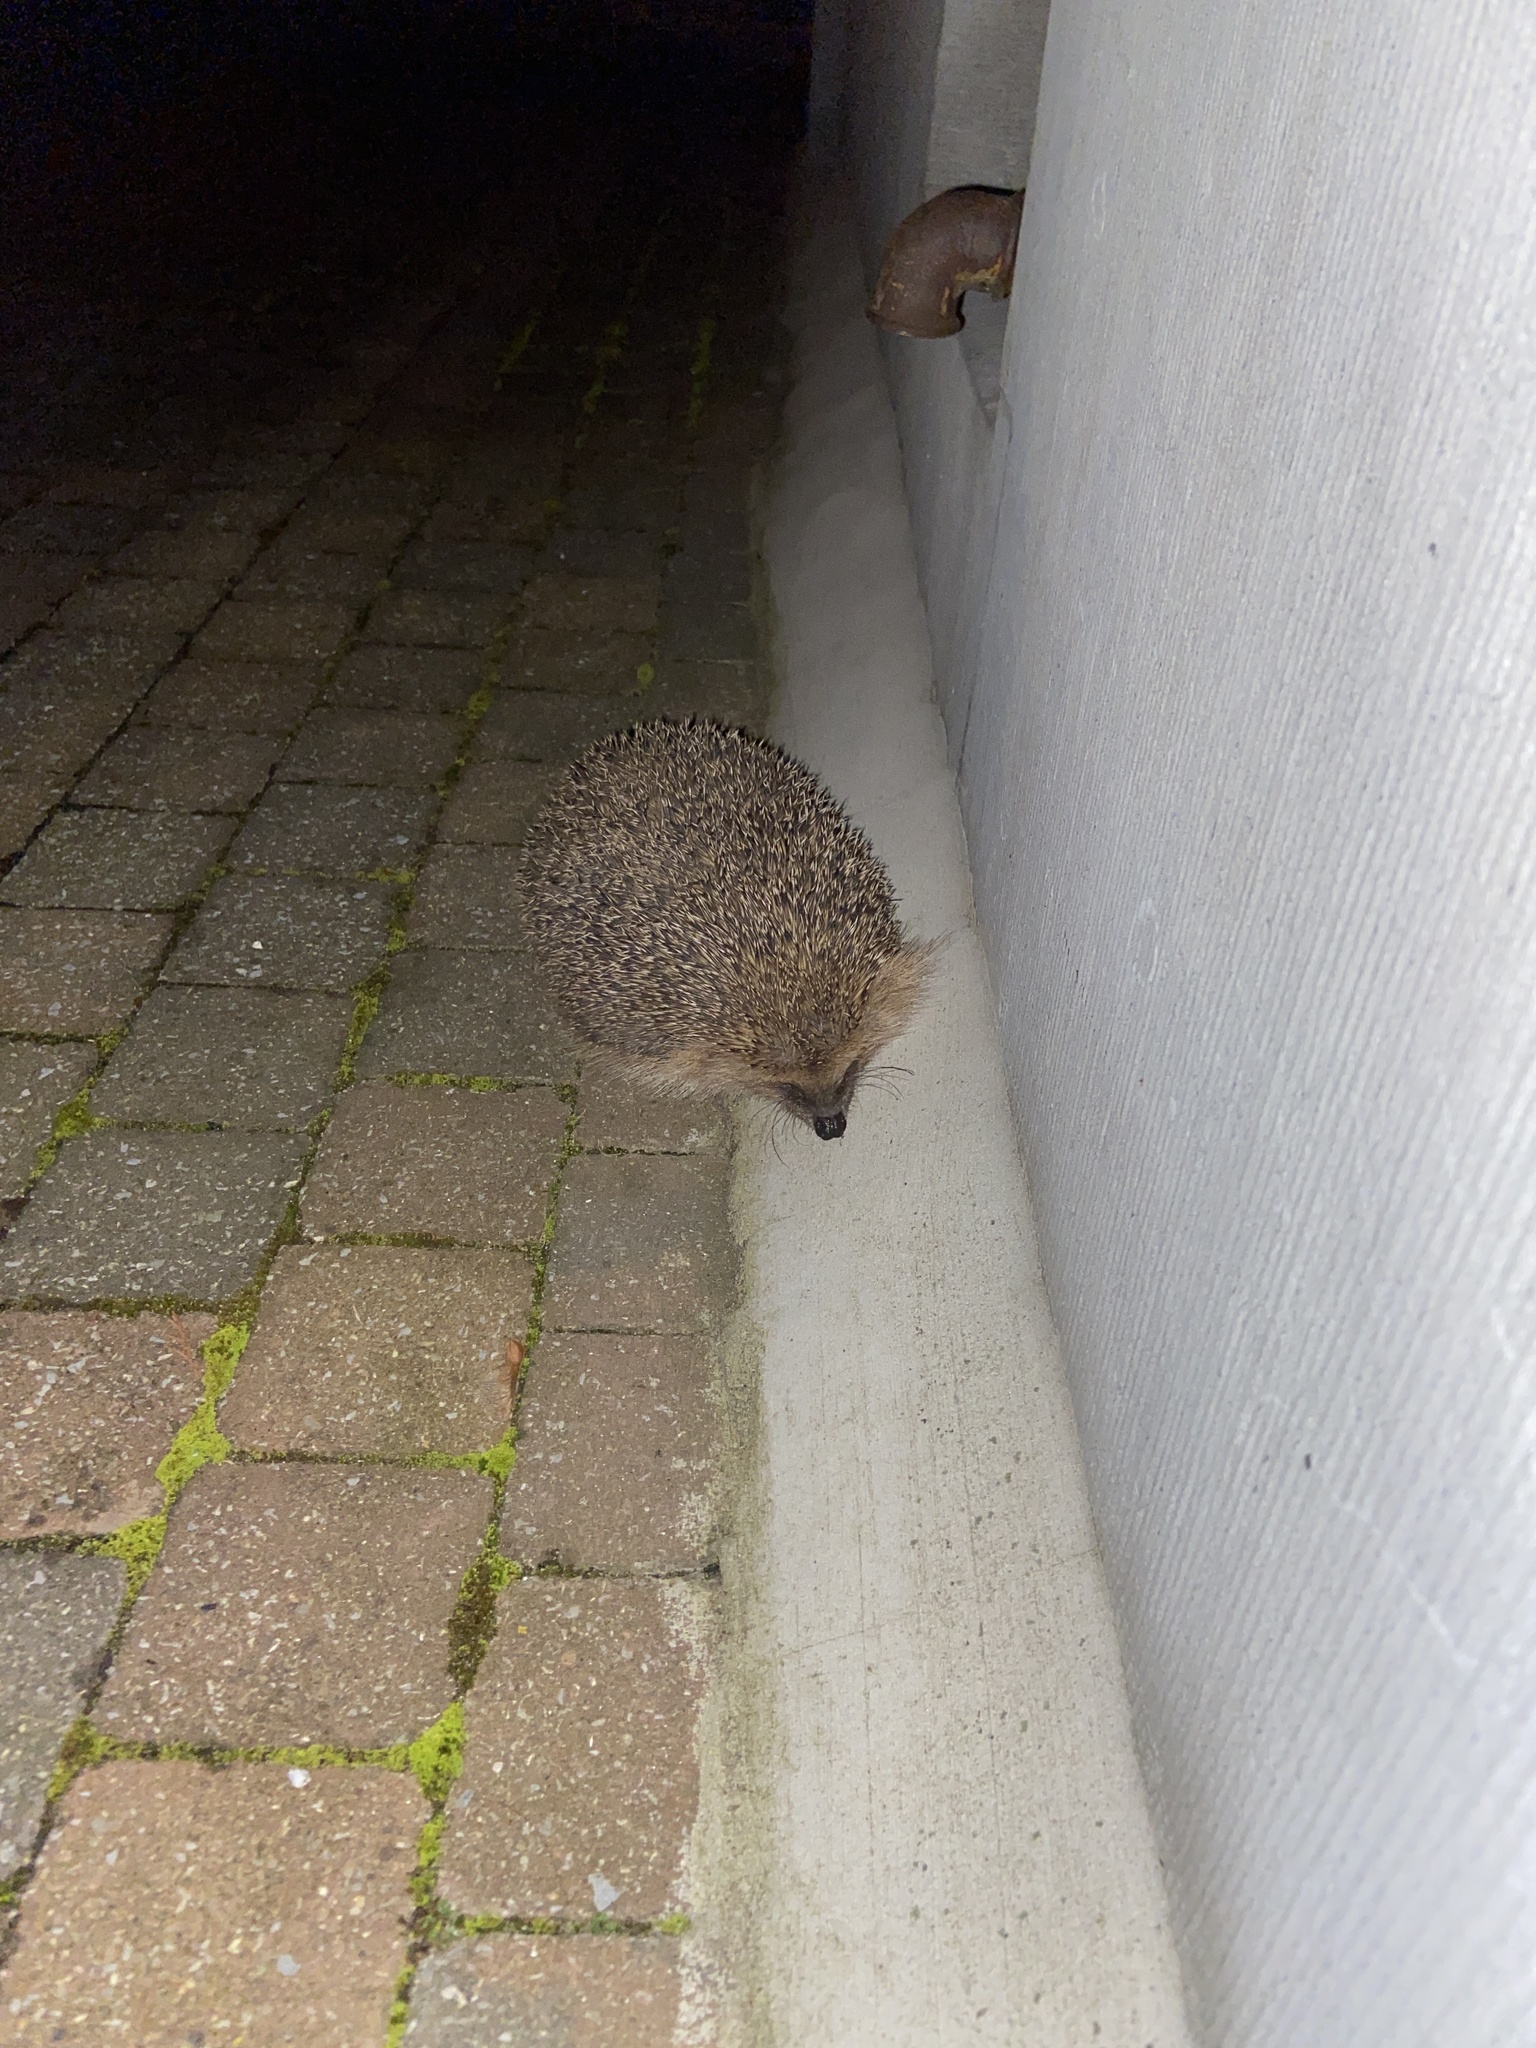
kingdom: Animalia
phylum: Chordata
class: Mammalia
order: Erinaceomorpha
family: Erinaceidae
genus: Erinaceus
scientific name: Erinaceus europaeus
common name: West european hedgehog
